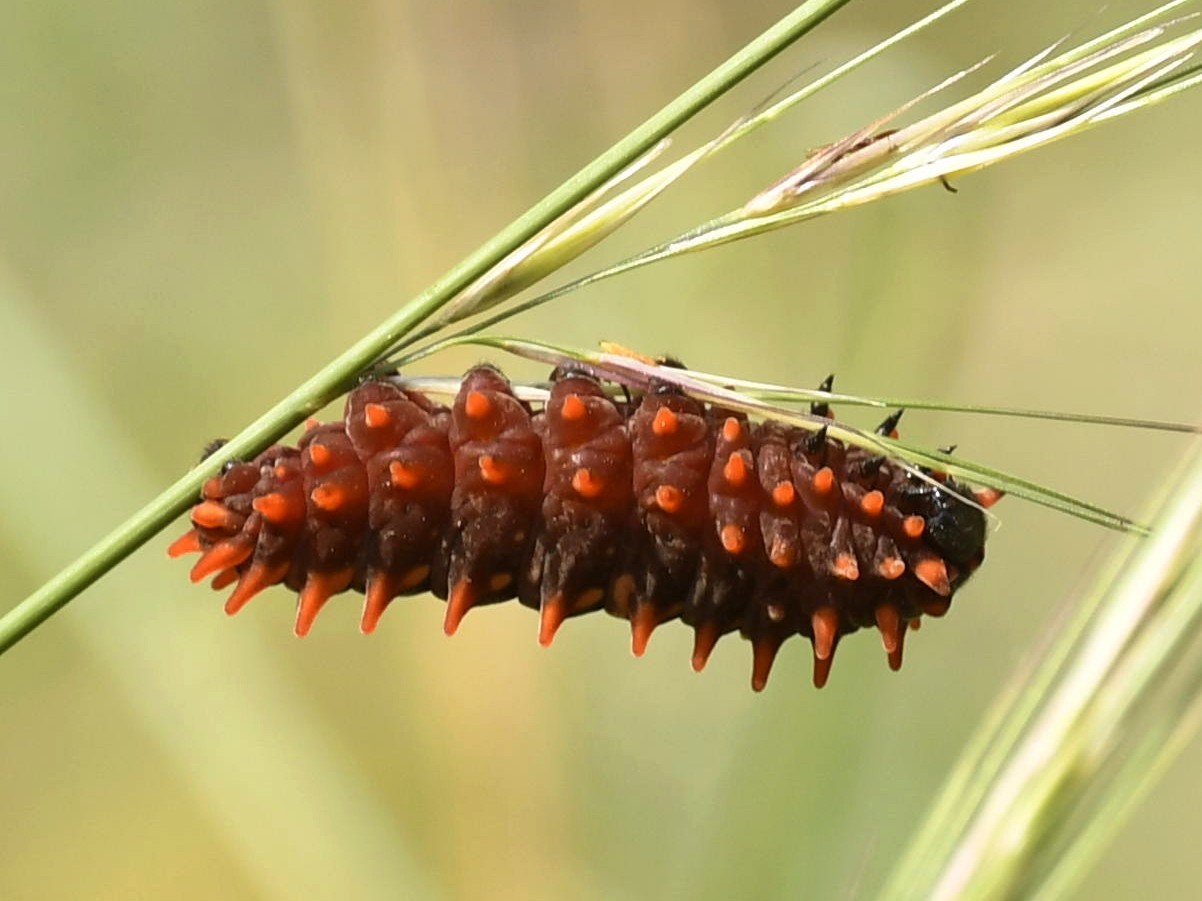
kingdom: Animalia
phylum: Arthropoda
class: Insecta
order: Lepidoptera
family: Papilionidae
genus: Pachliopta
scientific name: Pachliopta aristolochiae
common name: Common rose
